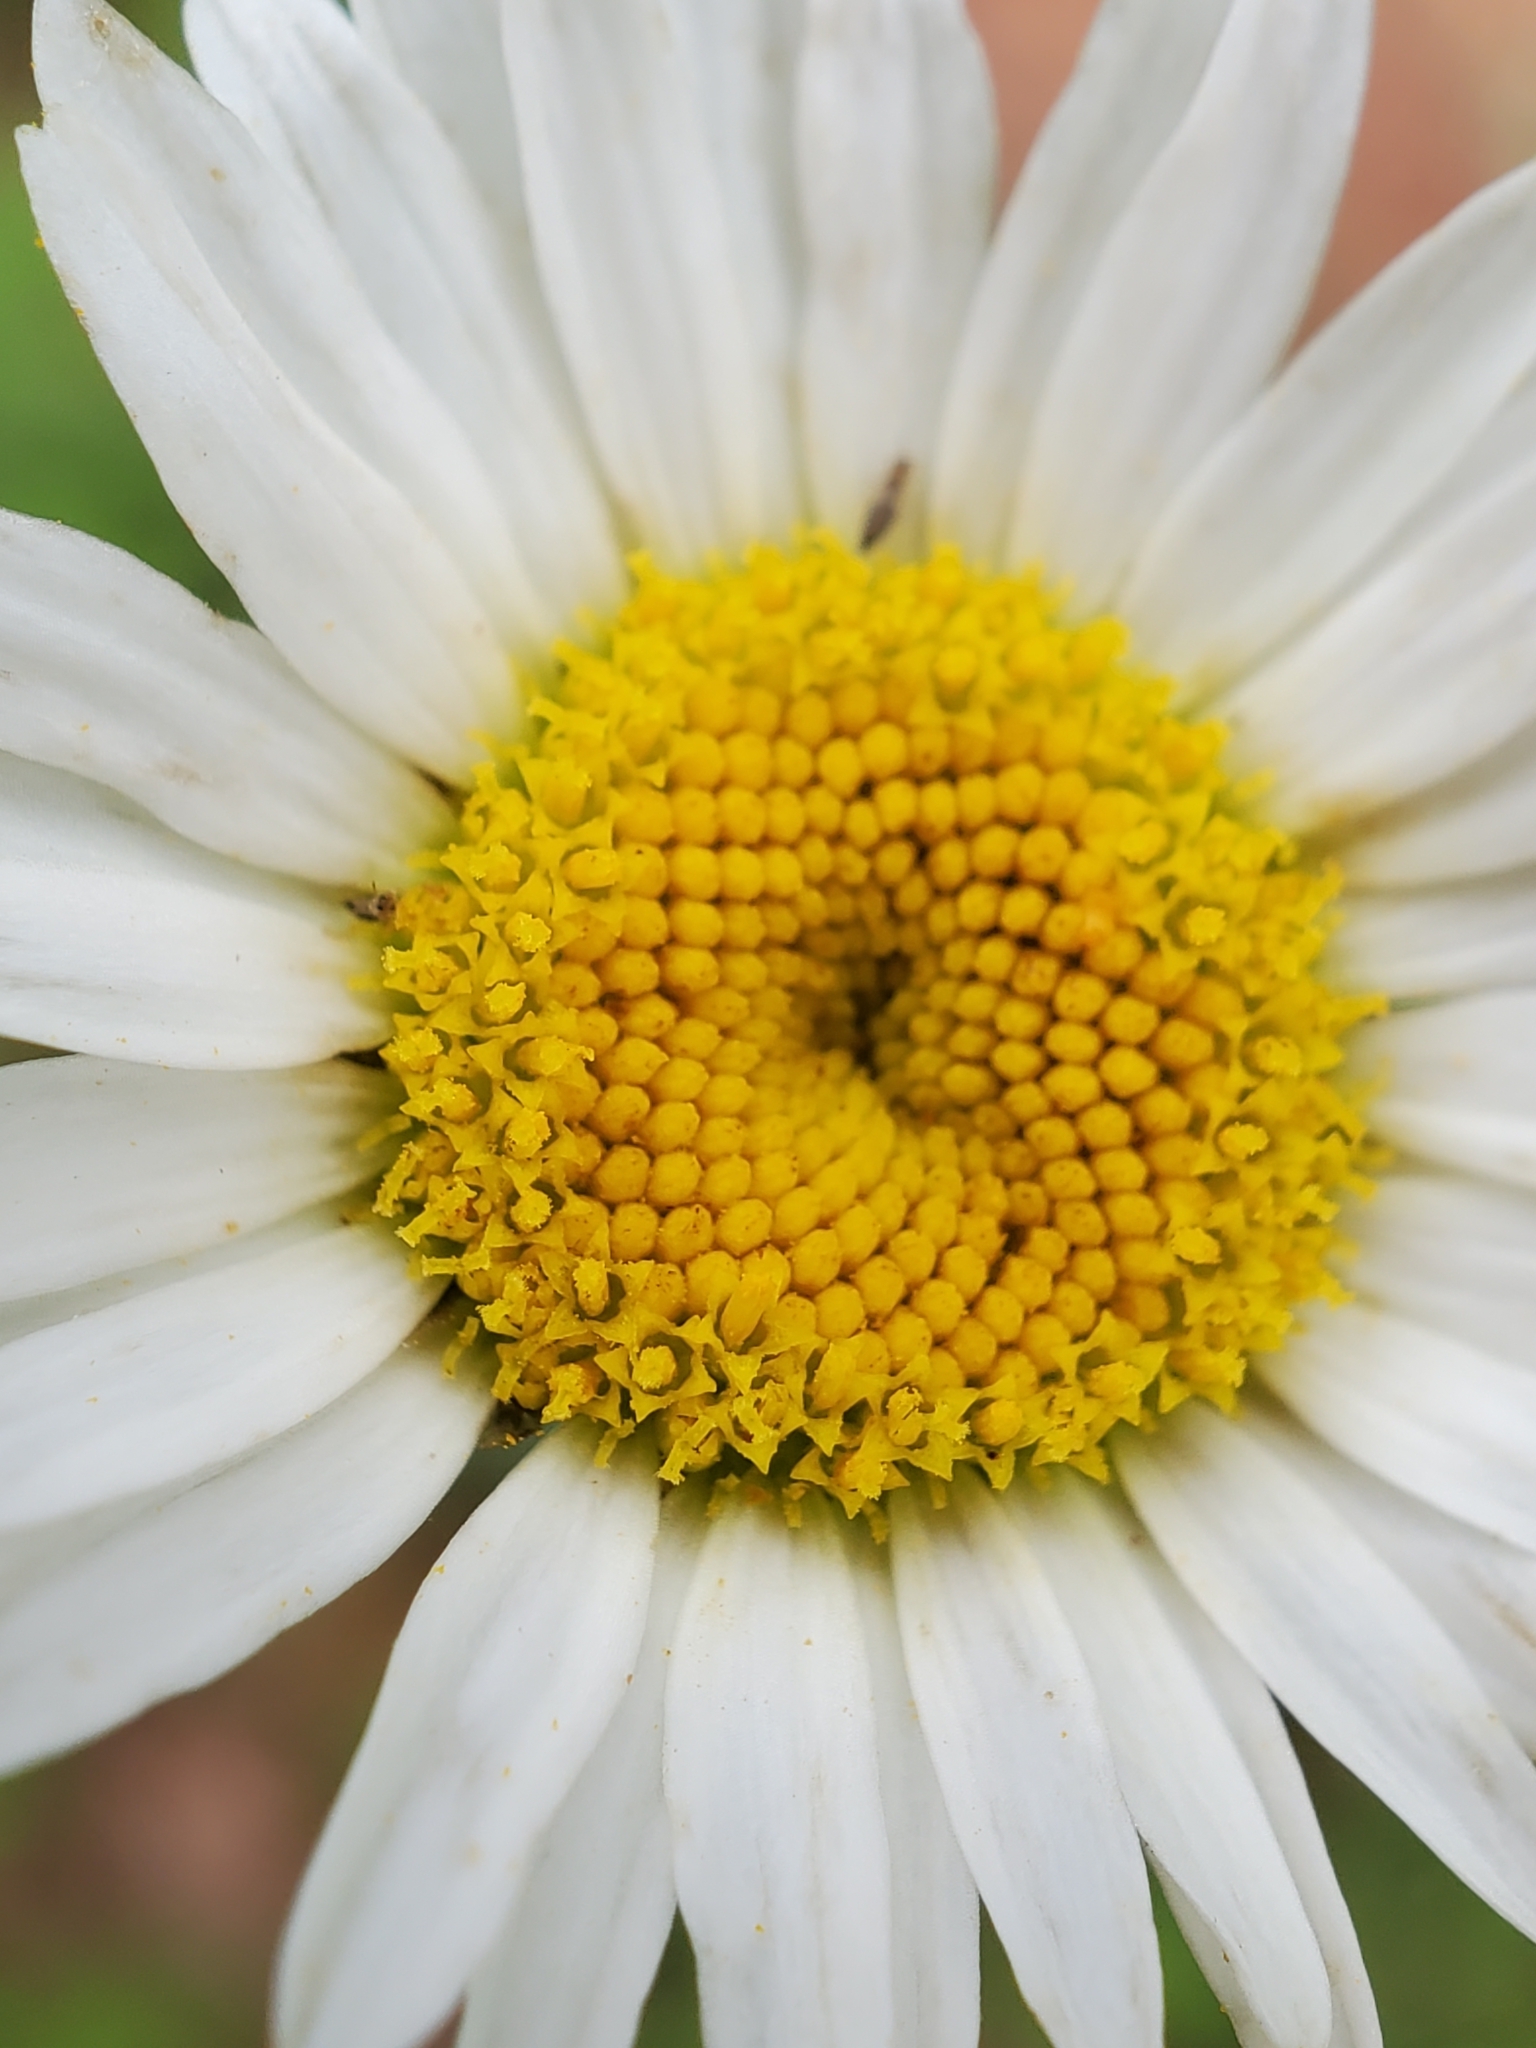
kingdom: Plantae
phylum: Tracheophyta
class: Magnoliopsida
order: Asterales
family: Asteraceae
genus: Leucanthemum
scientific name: Leucanthemum vulgare
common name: Oxeye daisy
